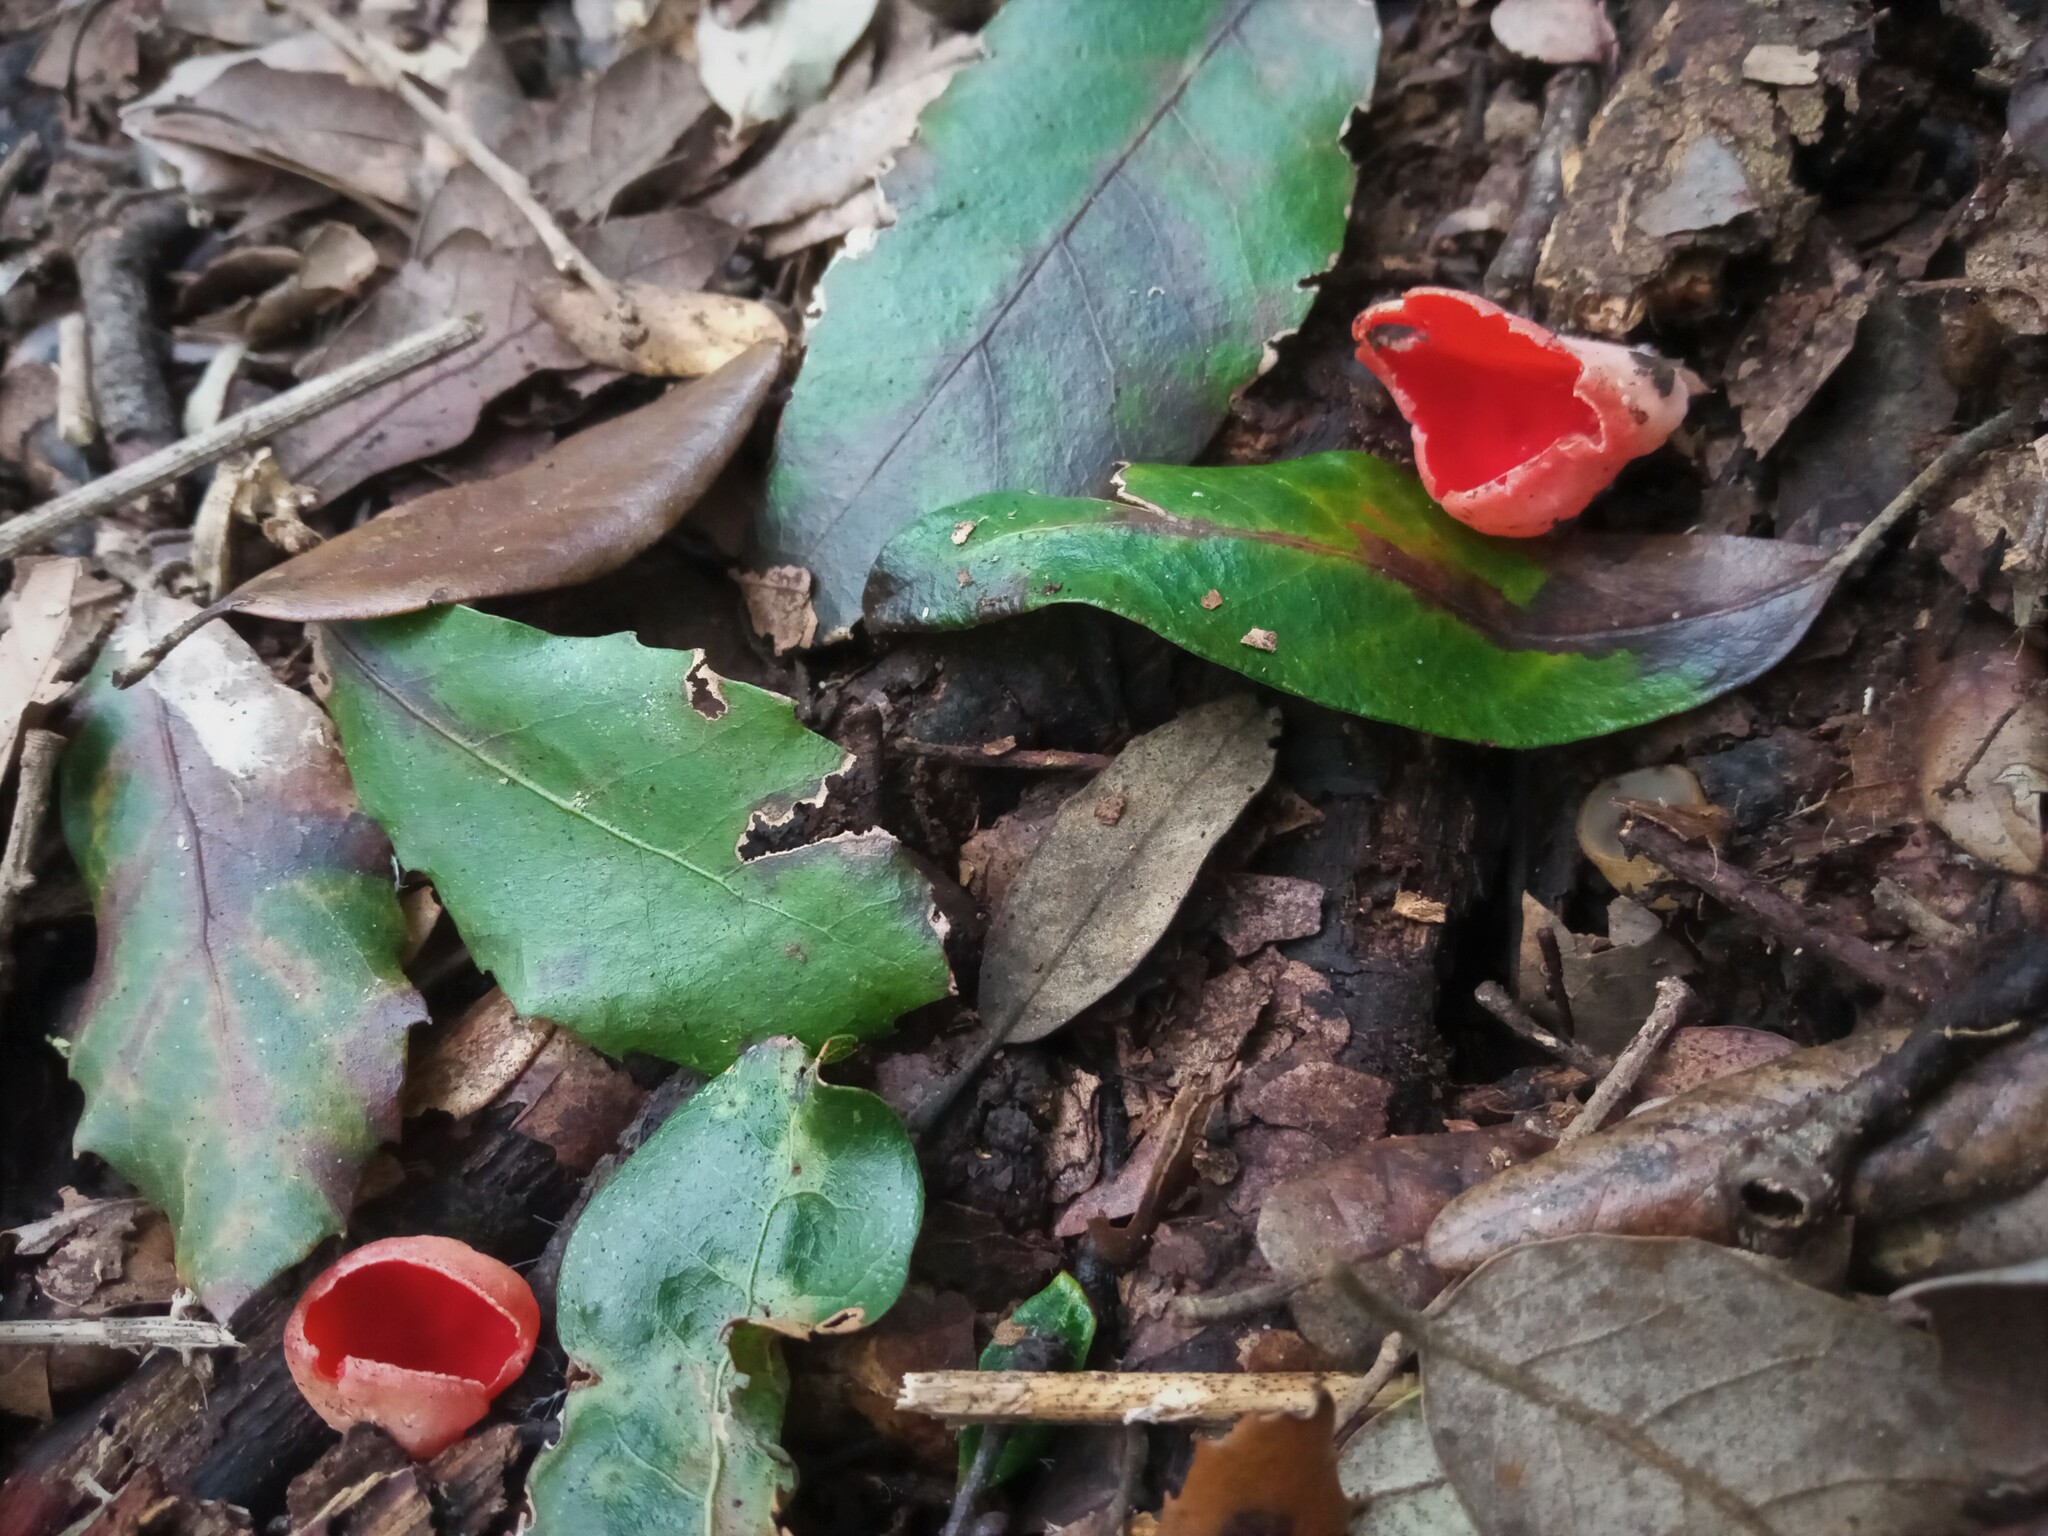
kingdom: Fungi
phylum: Ascomycota
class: Pezizomycetes
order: Pezizales
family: Sarcoscyphaceae
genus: Sarcoscypha
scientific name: Sarcoscypha
